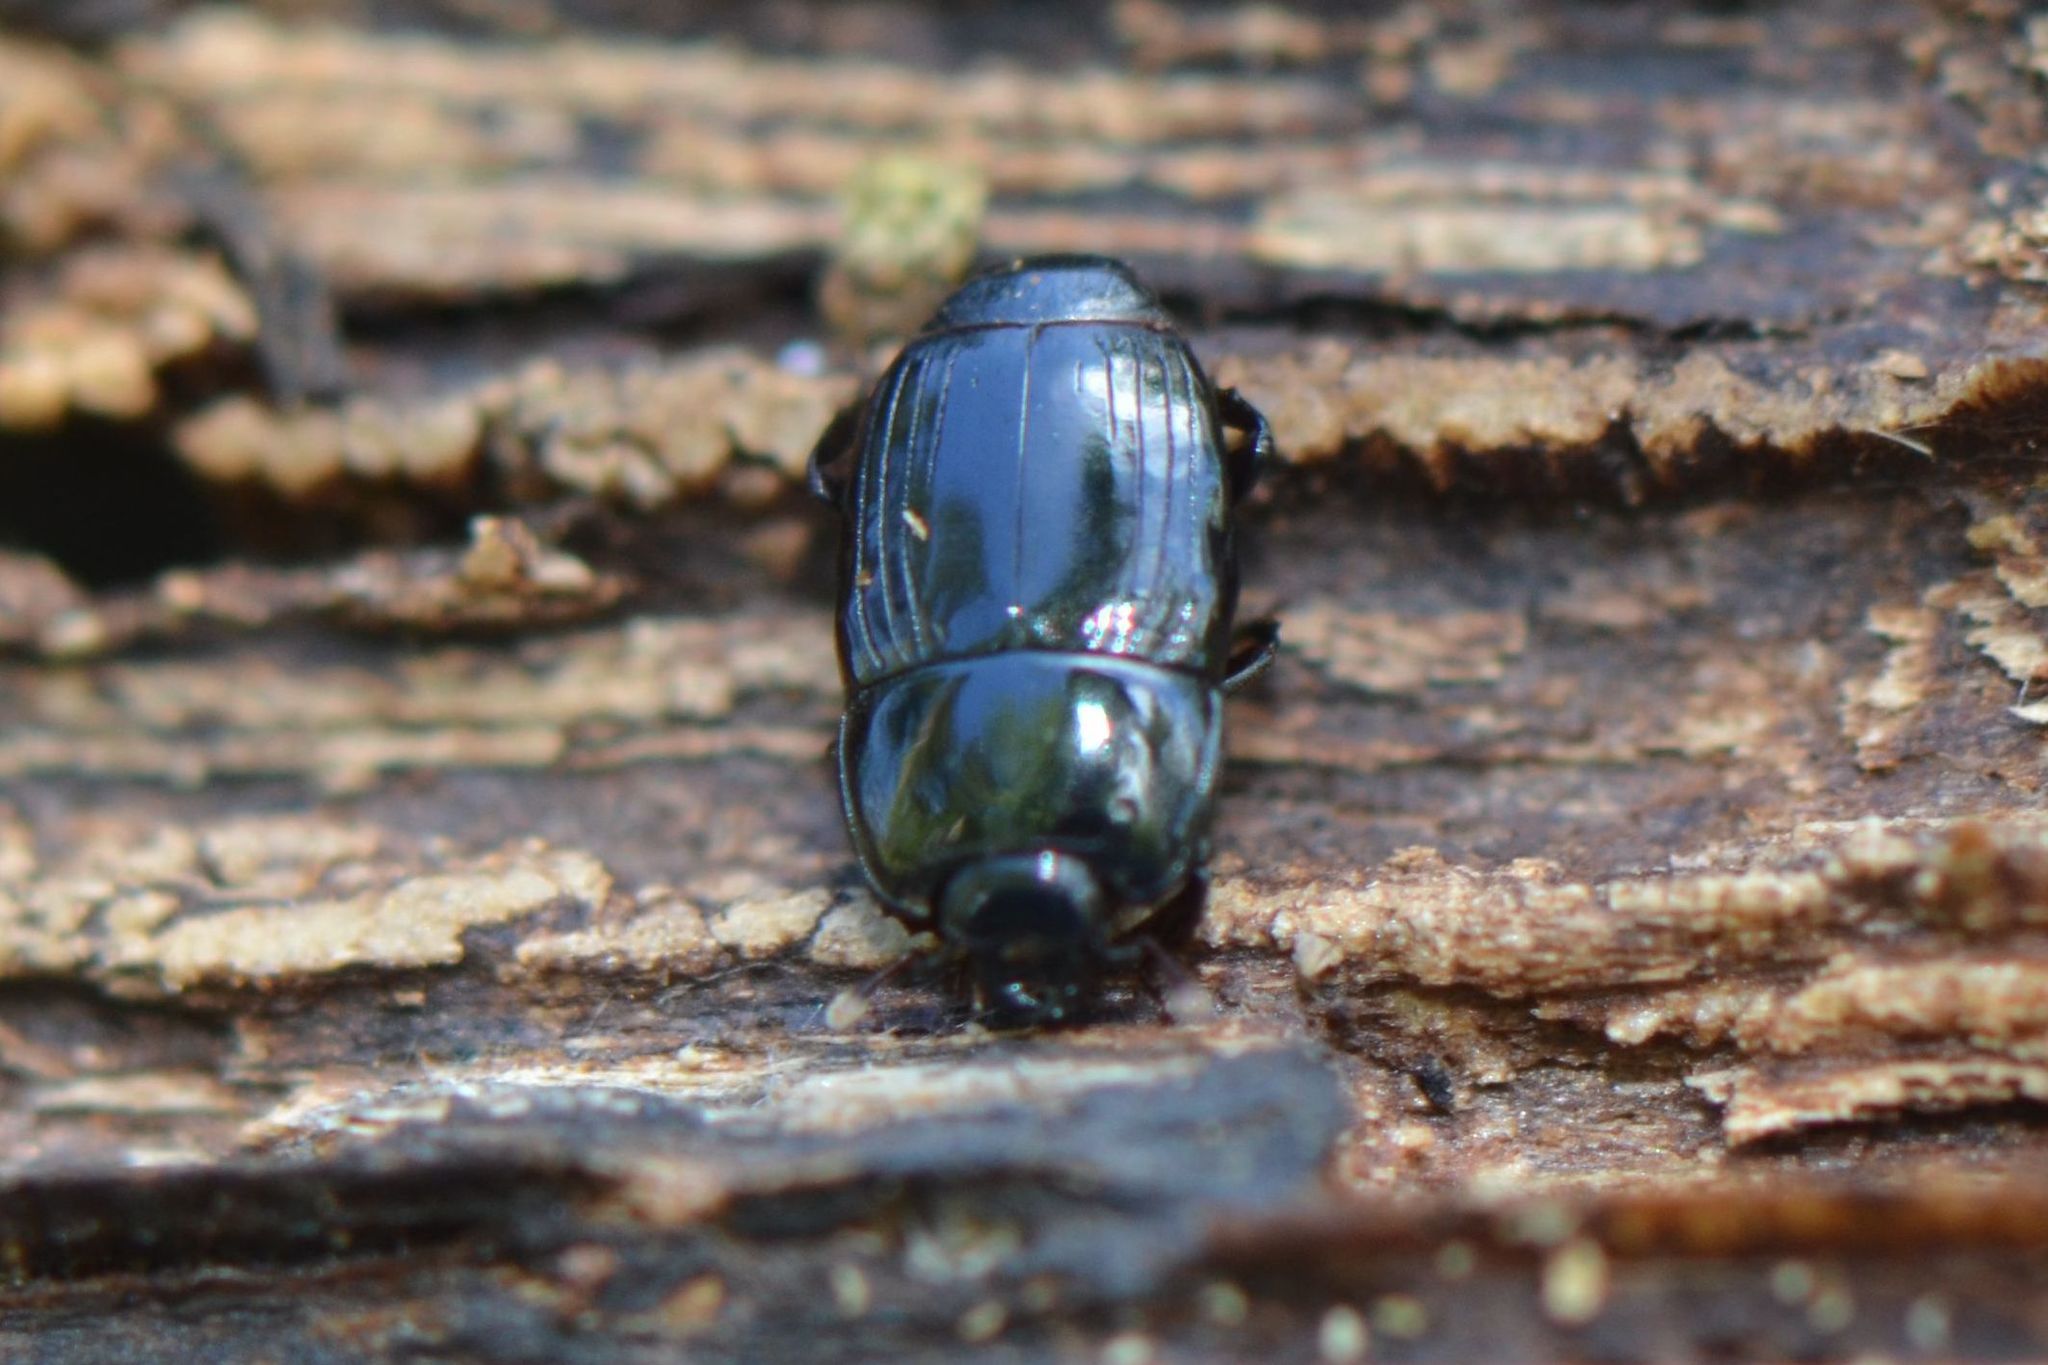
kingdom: Animalia
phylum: Arthropoda
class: Insecta
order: Coleoptera
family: Histeridae
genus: Platysoma
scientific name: Platysoma compressum
